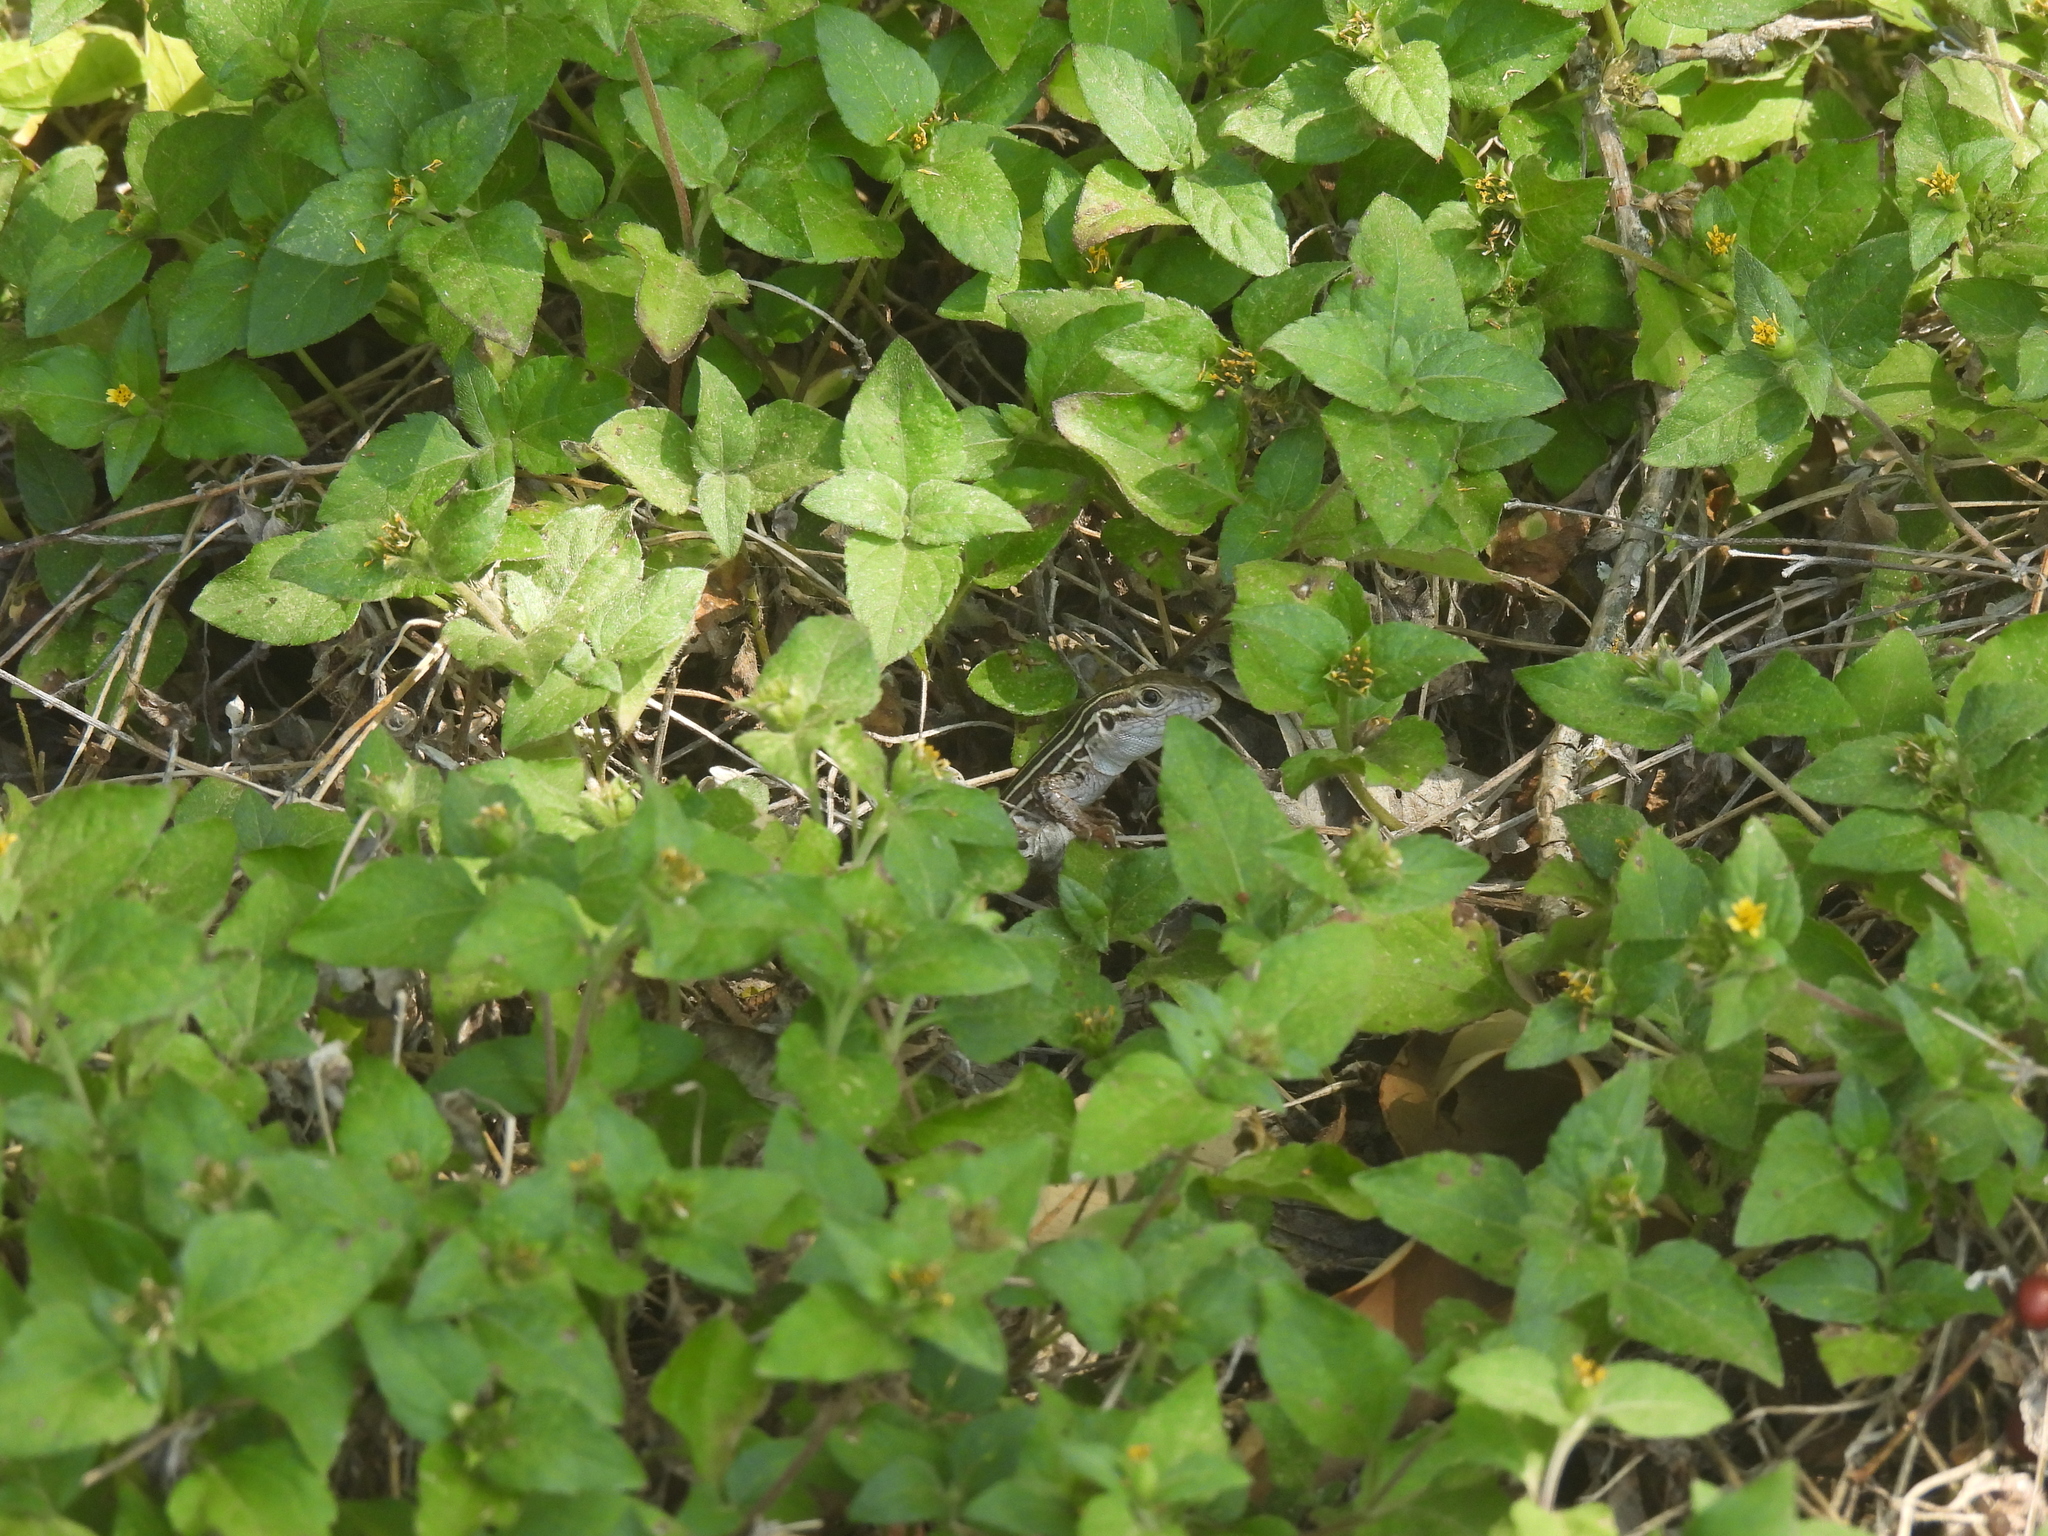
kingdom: Animalia
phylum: Chordata
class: Squamata
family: Teiidae
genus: Aspidoscelis
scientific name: Aspidoscelis gularis
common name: Eastern spotted whiptail
